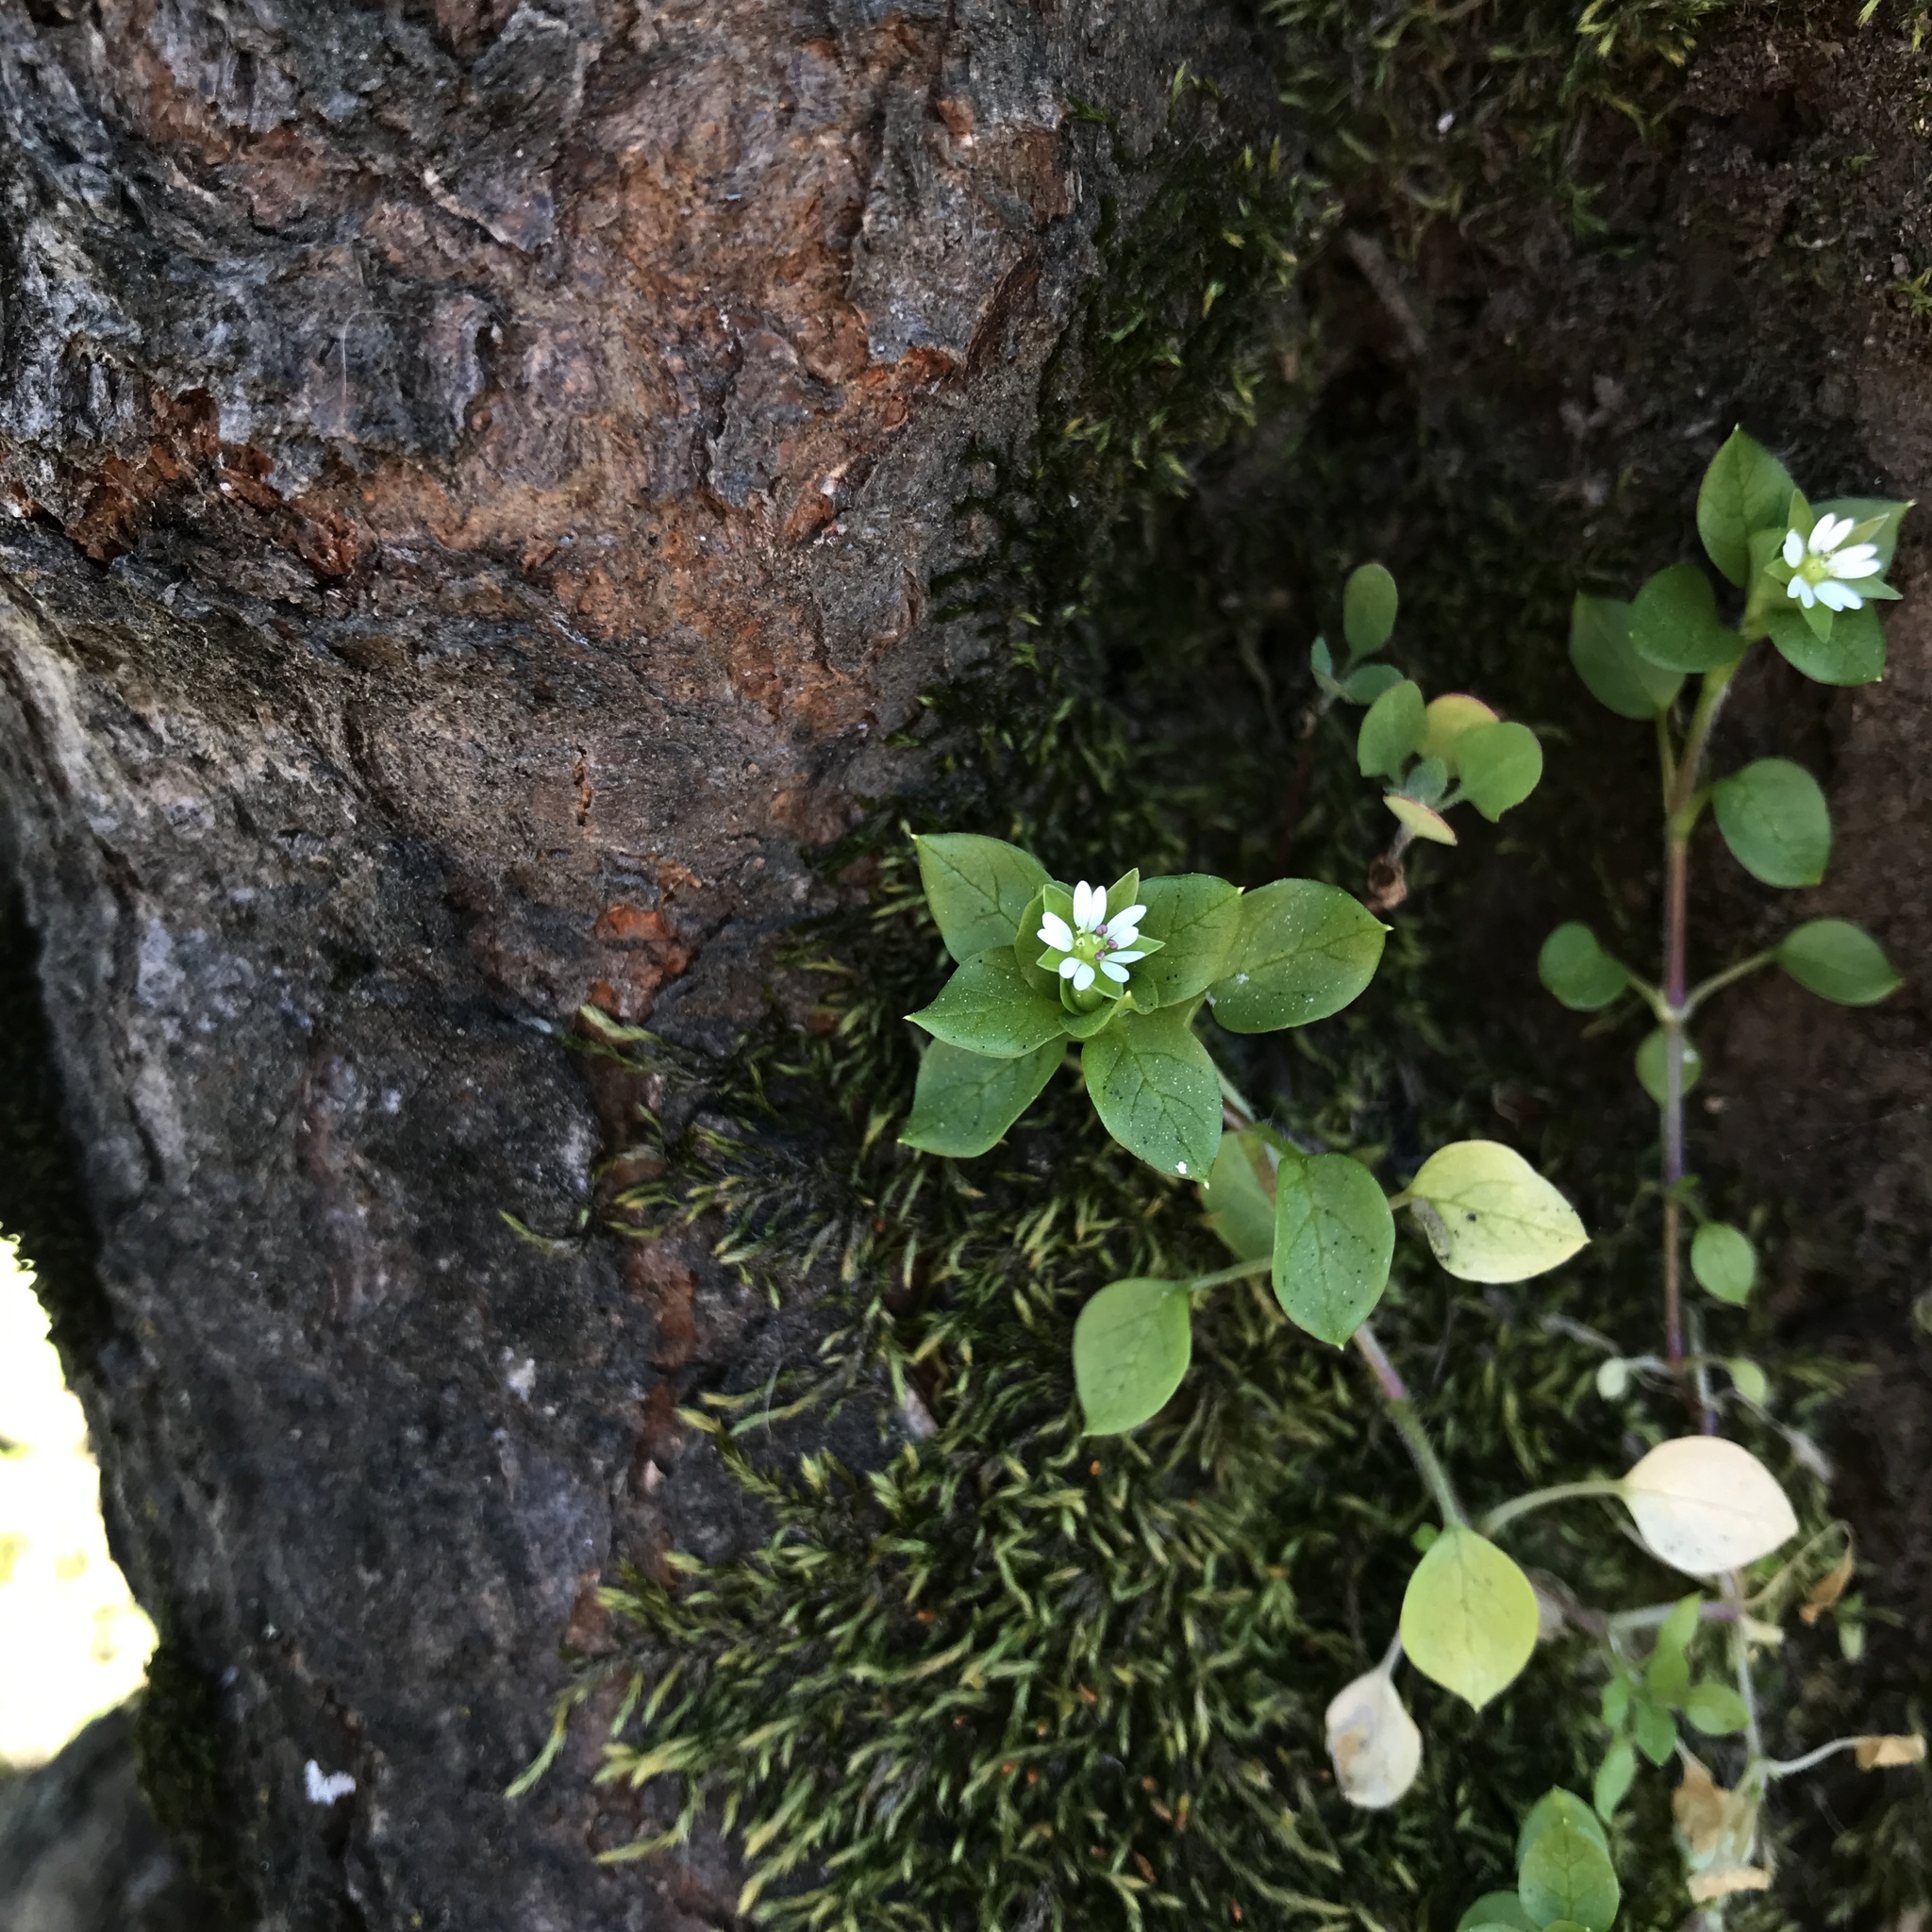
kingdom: Plantae
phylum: Tracheophyta
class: Magnoliopsida
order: Caryophyllales
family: Caryophyllaceae
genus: Stellaria
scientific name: Stellaria media
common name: Common chickweed
